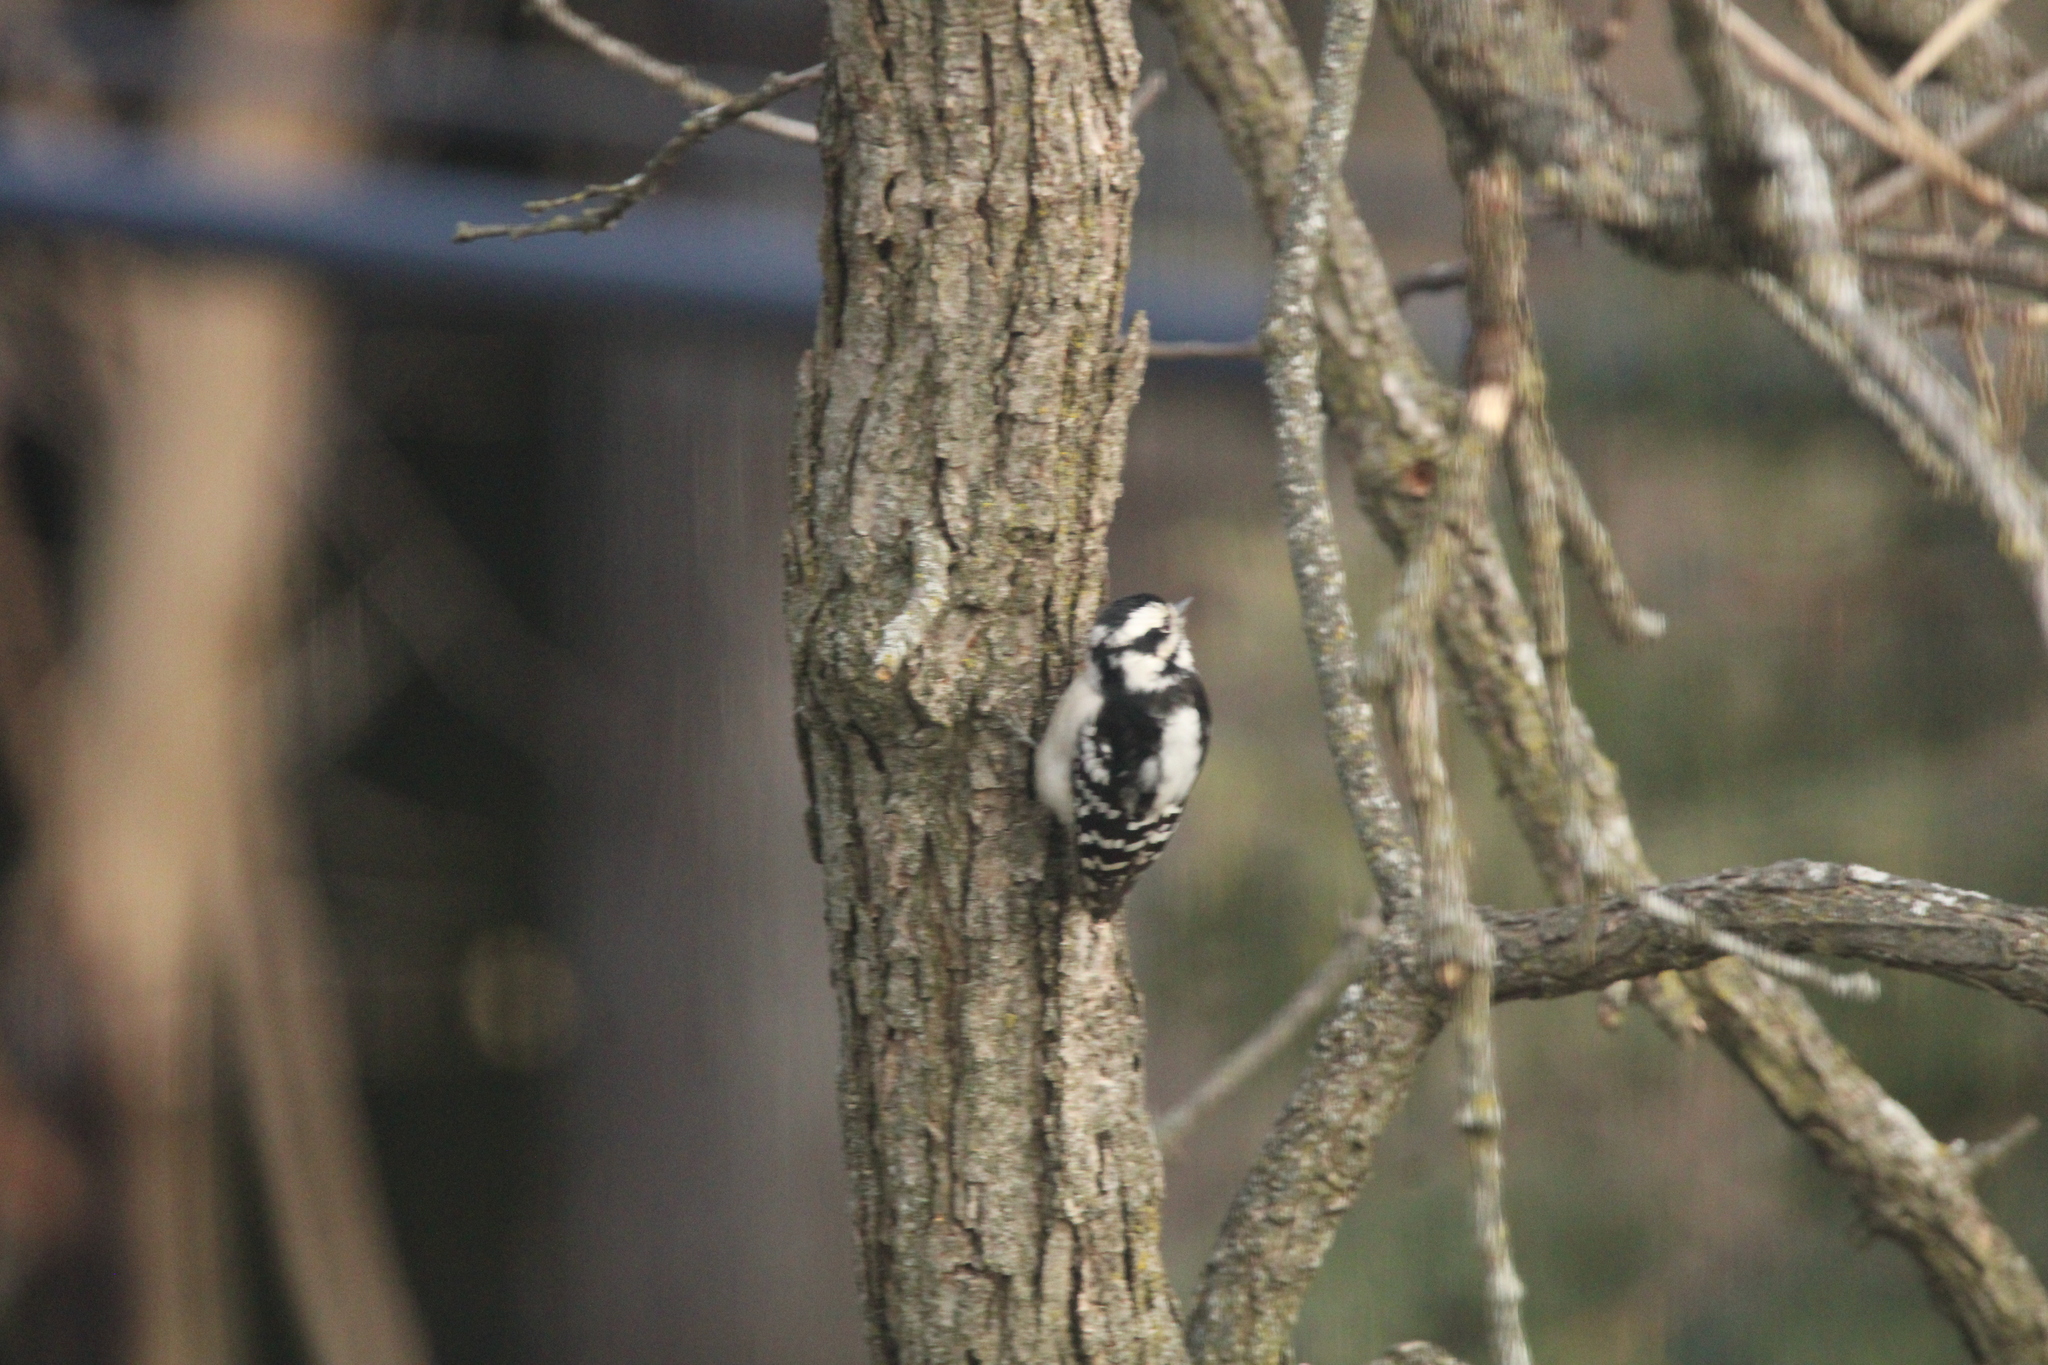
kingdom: Animalia
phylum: Chordata
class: Aves
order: Piciformes
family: Picidae
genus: Dryobates
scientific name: Dryobates pubescens
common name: Downy woodpecker
